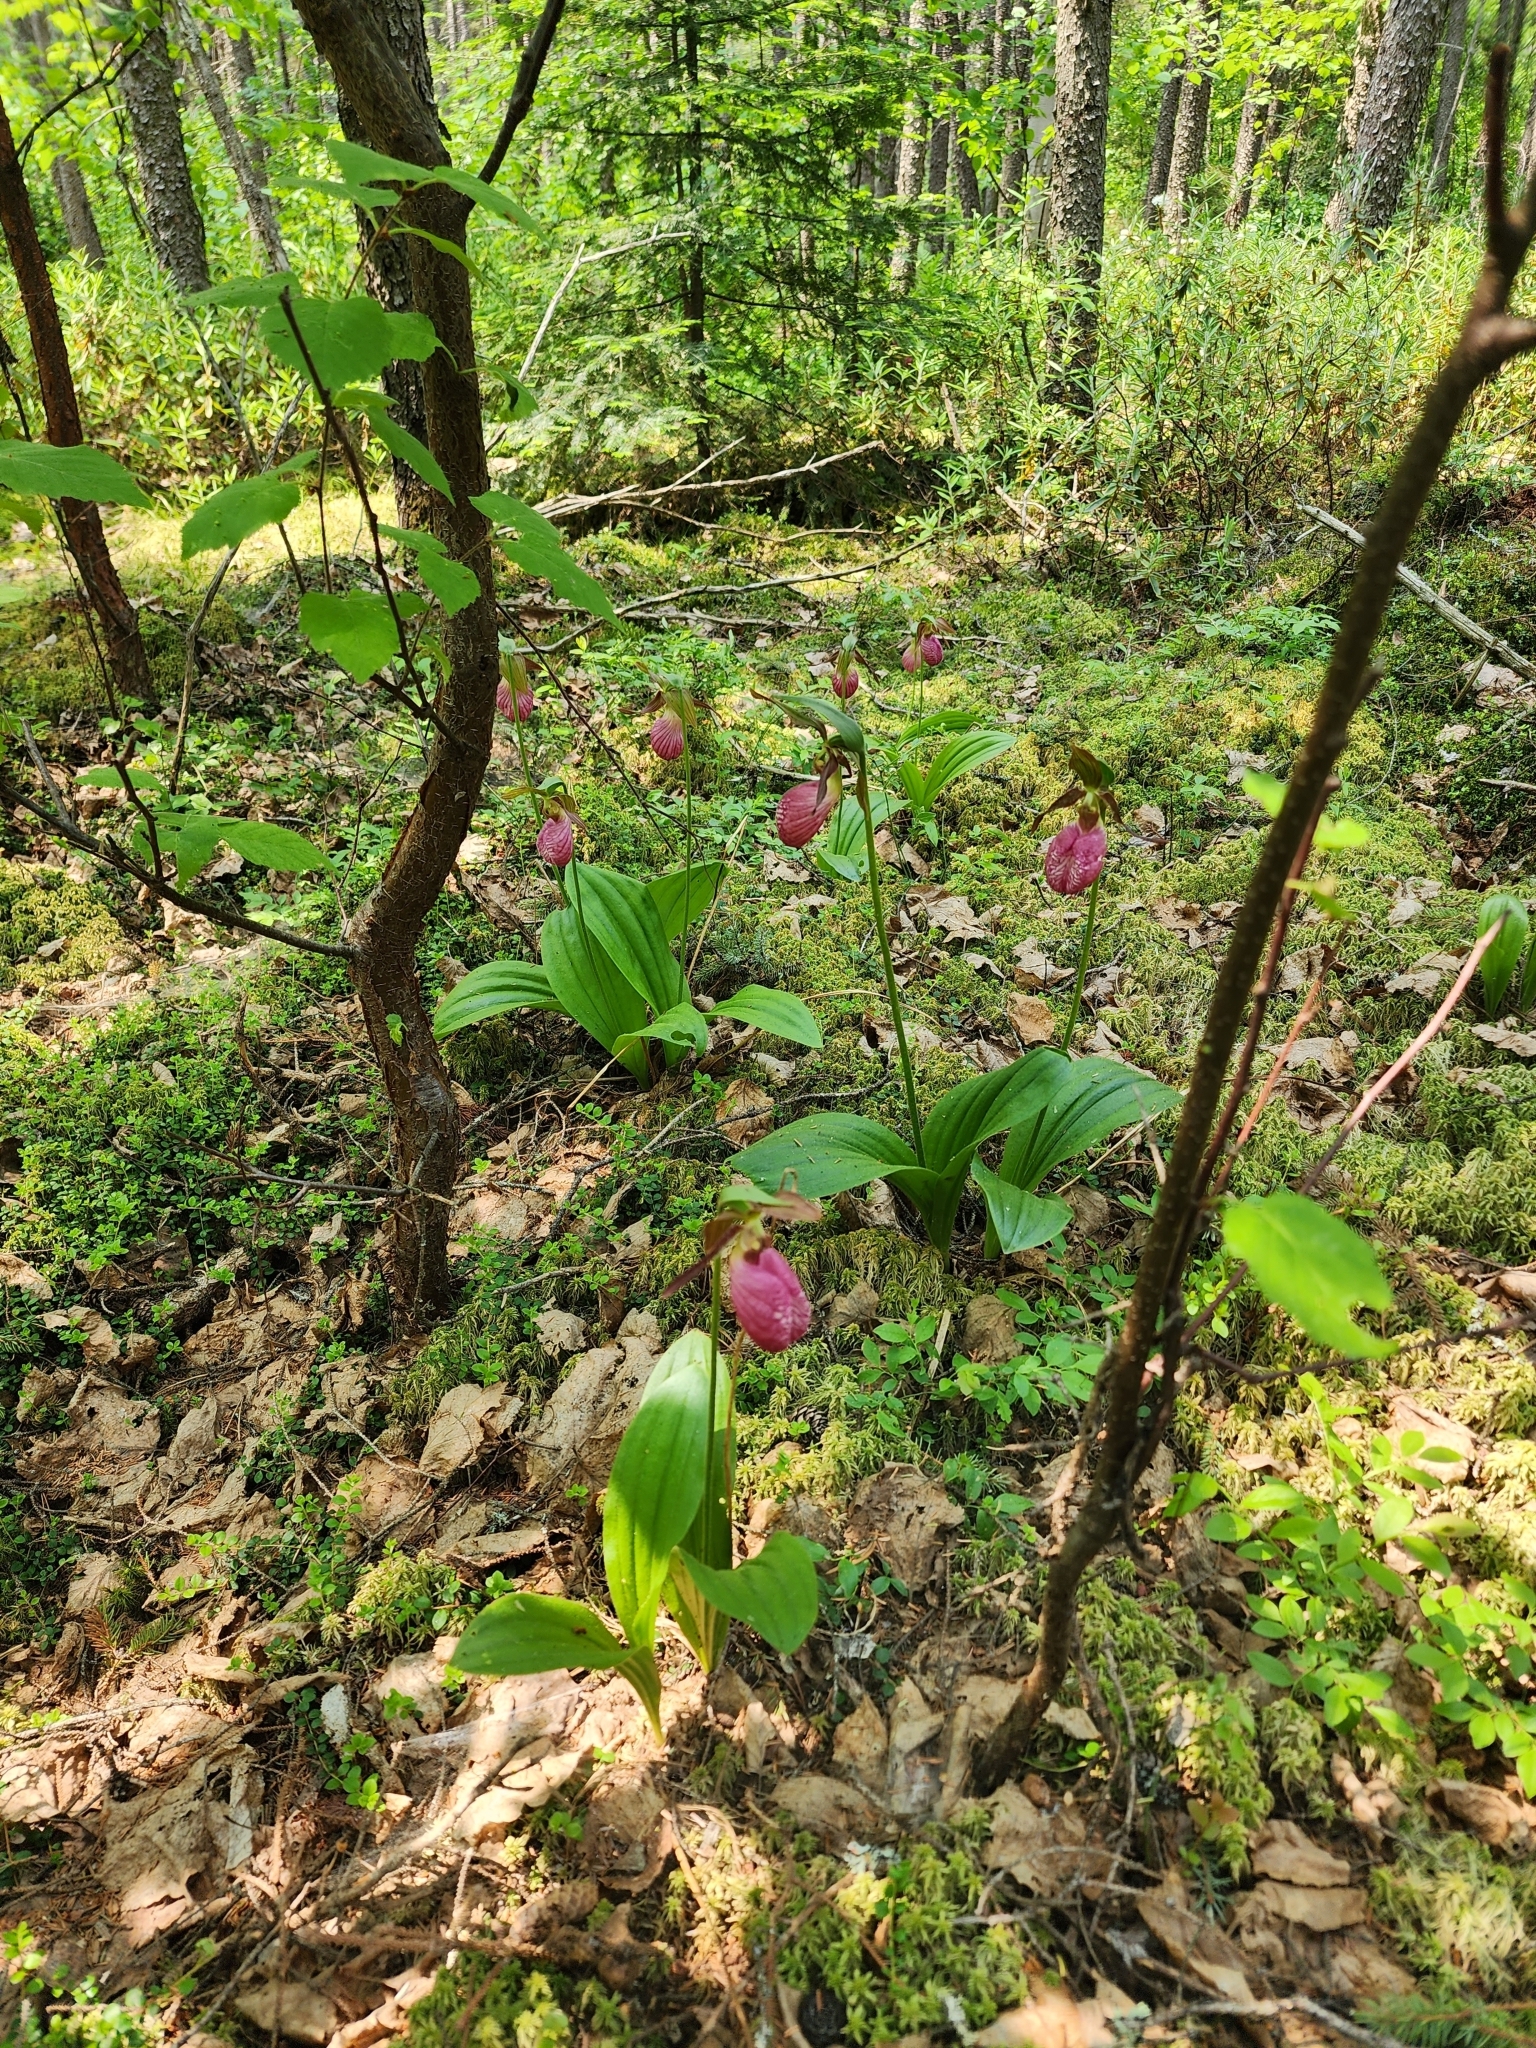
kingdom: Plantae
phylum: Tracheophyta
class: Liliopsida
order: Asparagales
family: Orchidaceae
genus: Cypripedium
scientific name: Cypripedium acaule
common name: Pink lady's-slipper
